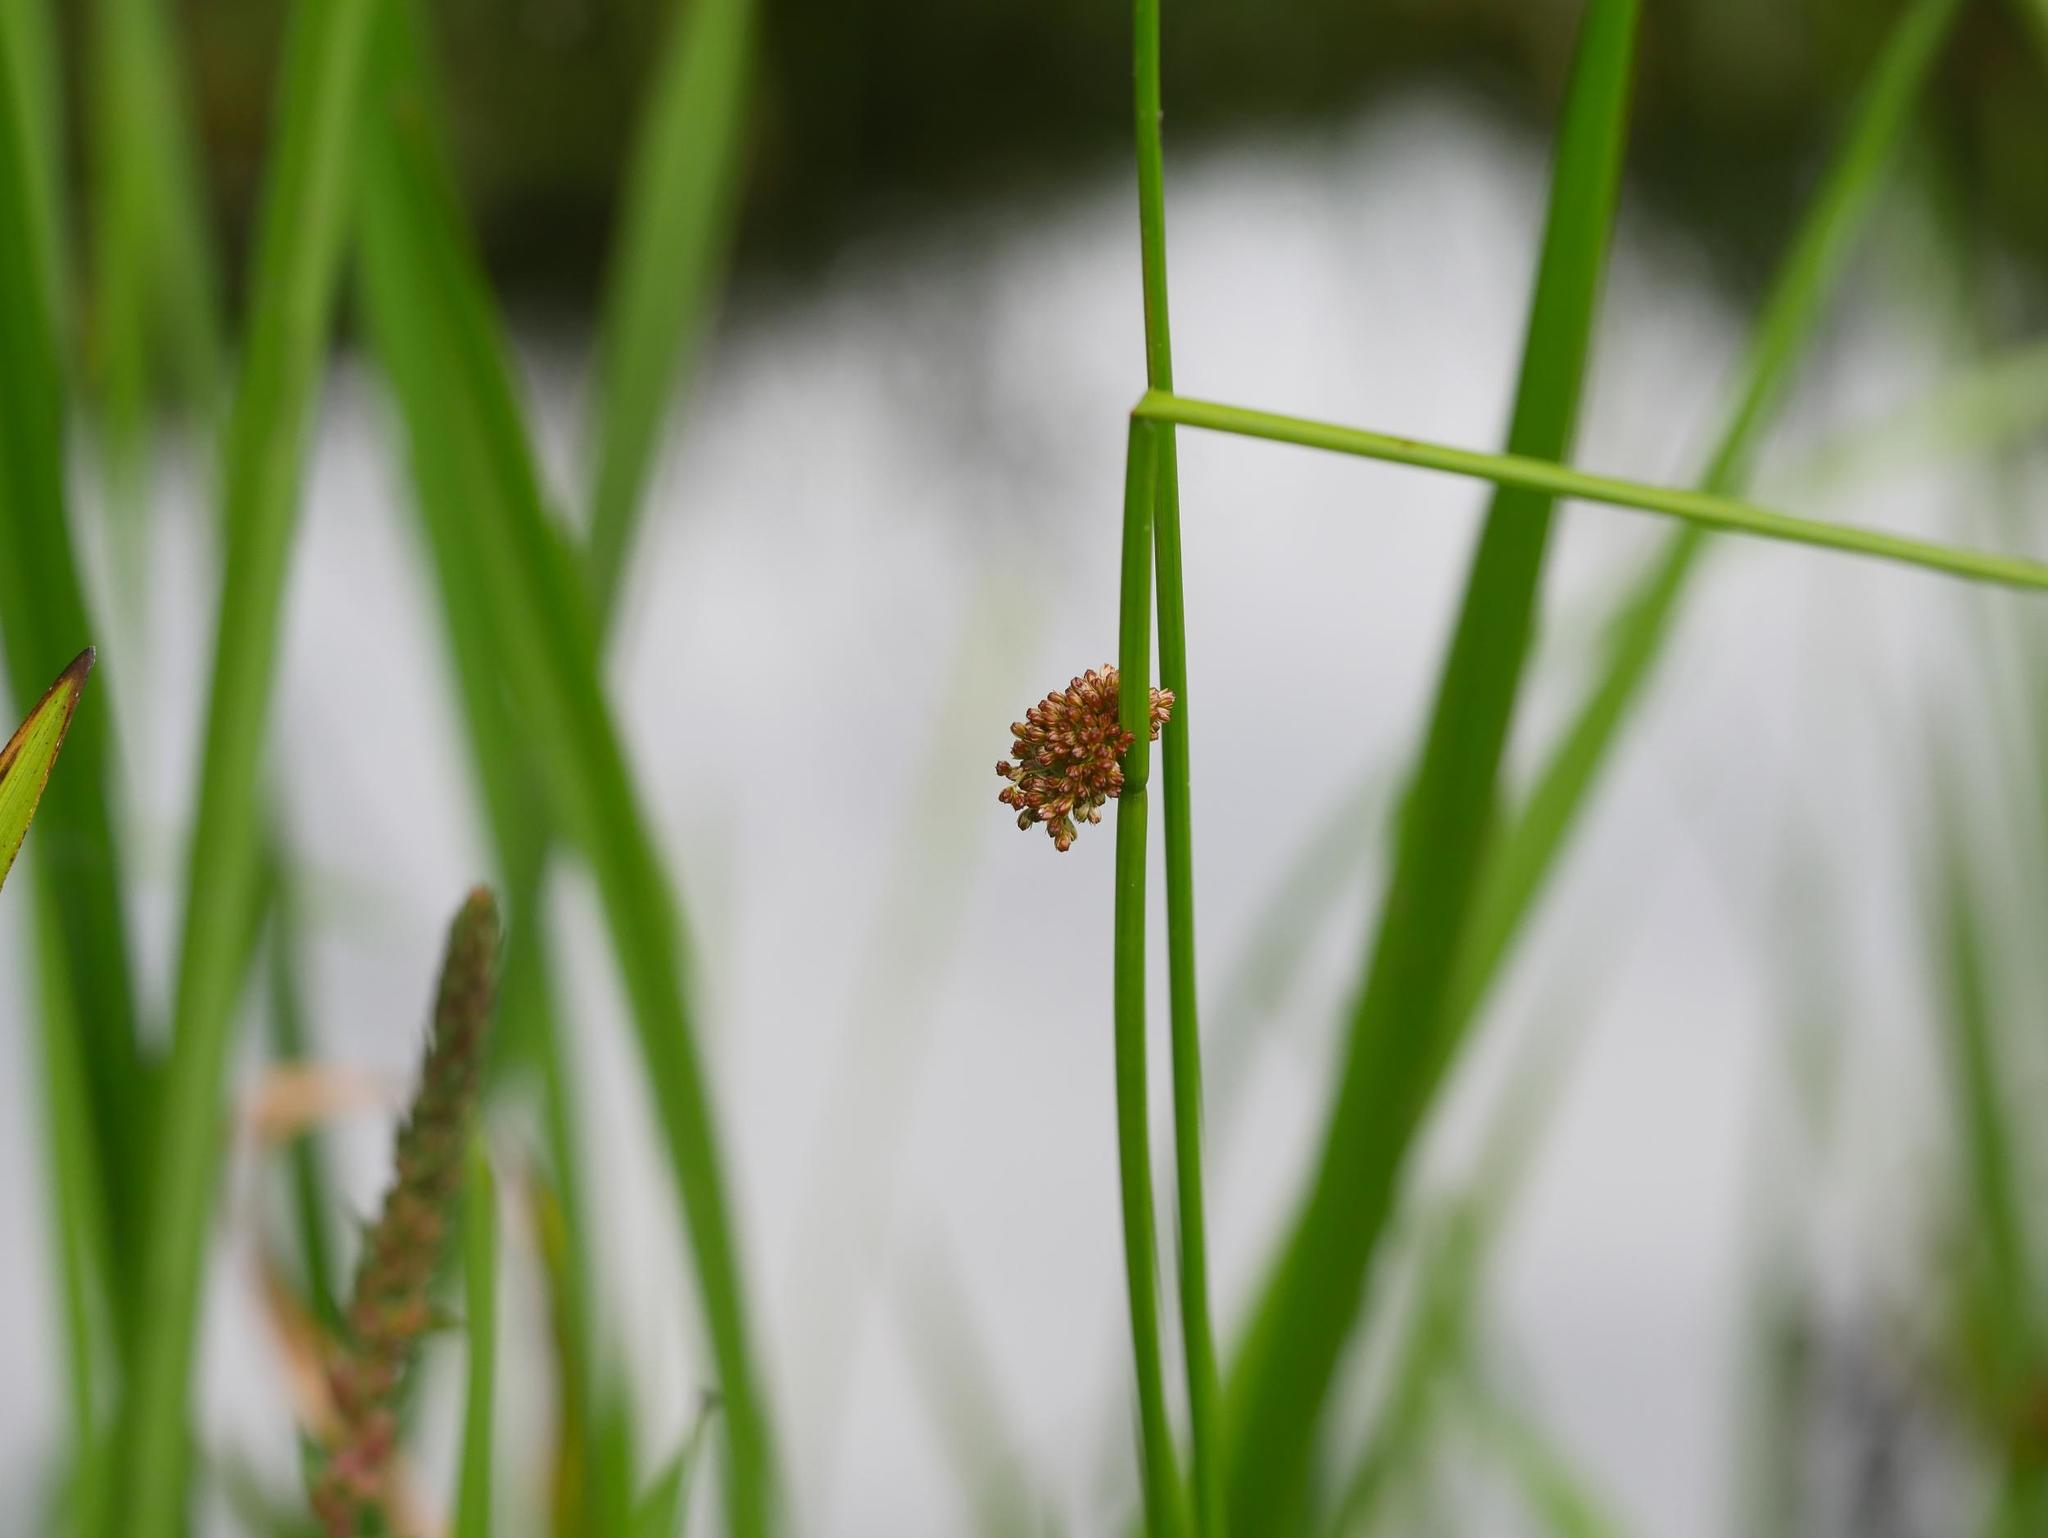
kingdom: Plantae
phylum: Tracheophyta
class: Liliopsida
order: Poales
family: Juncaceae
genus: Juncus
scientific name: Juncus effusus
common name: Soft rush
